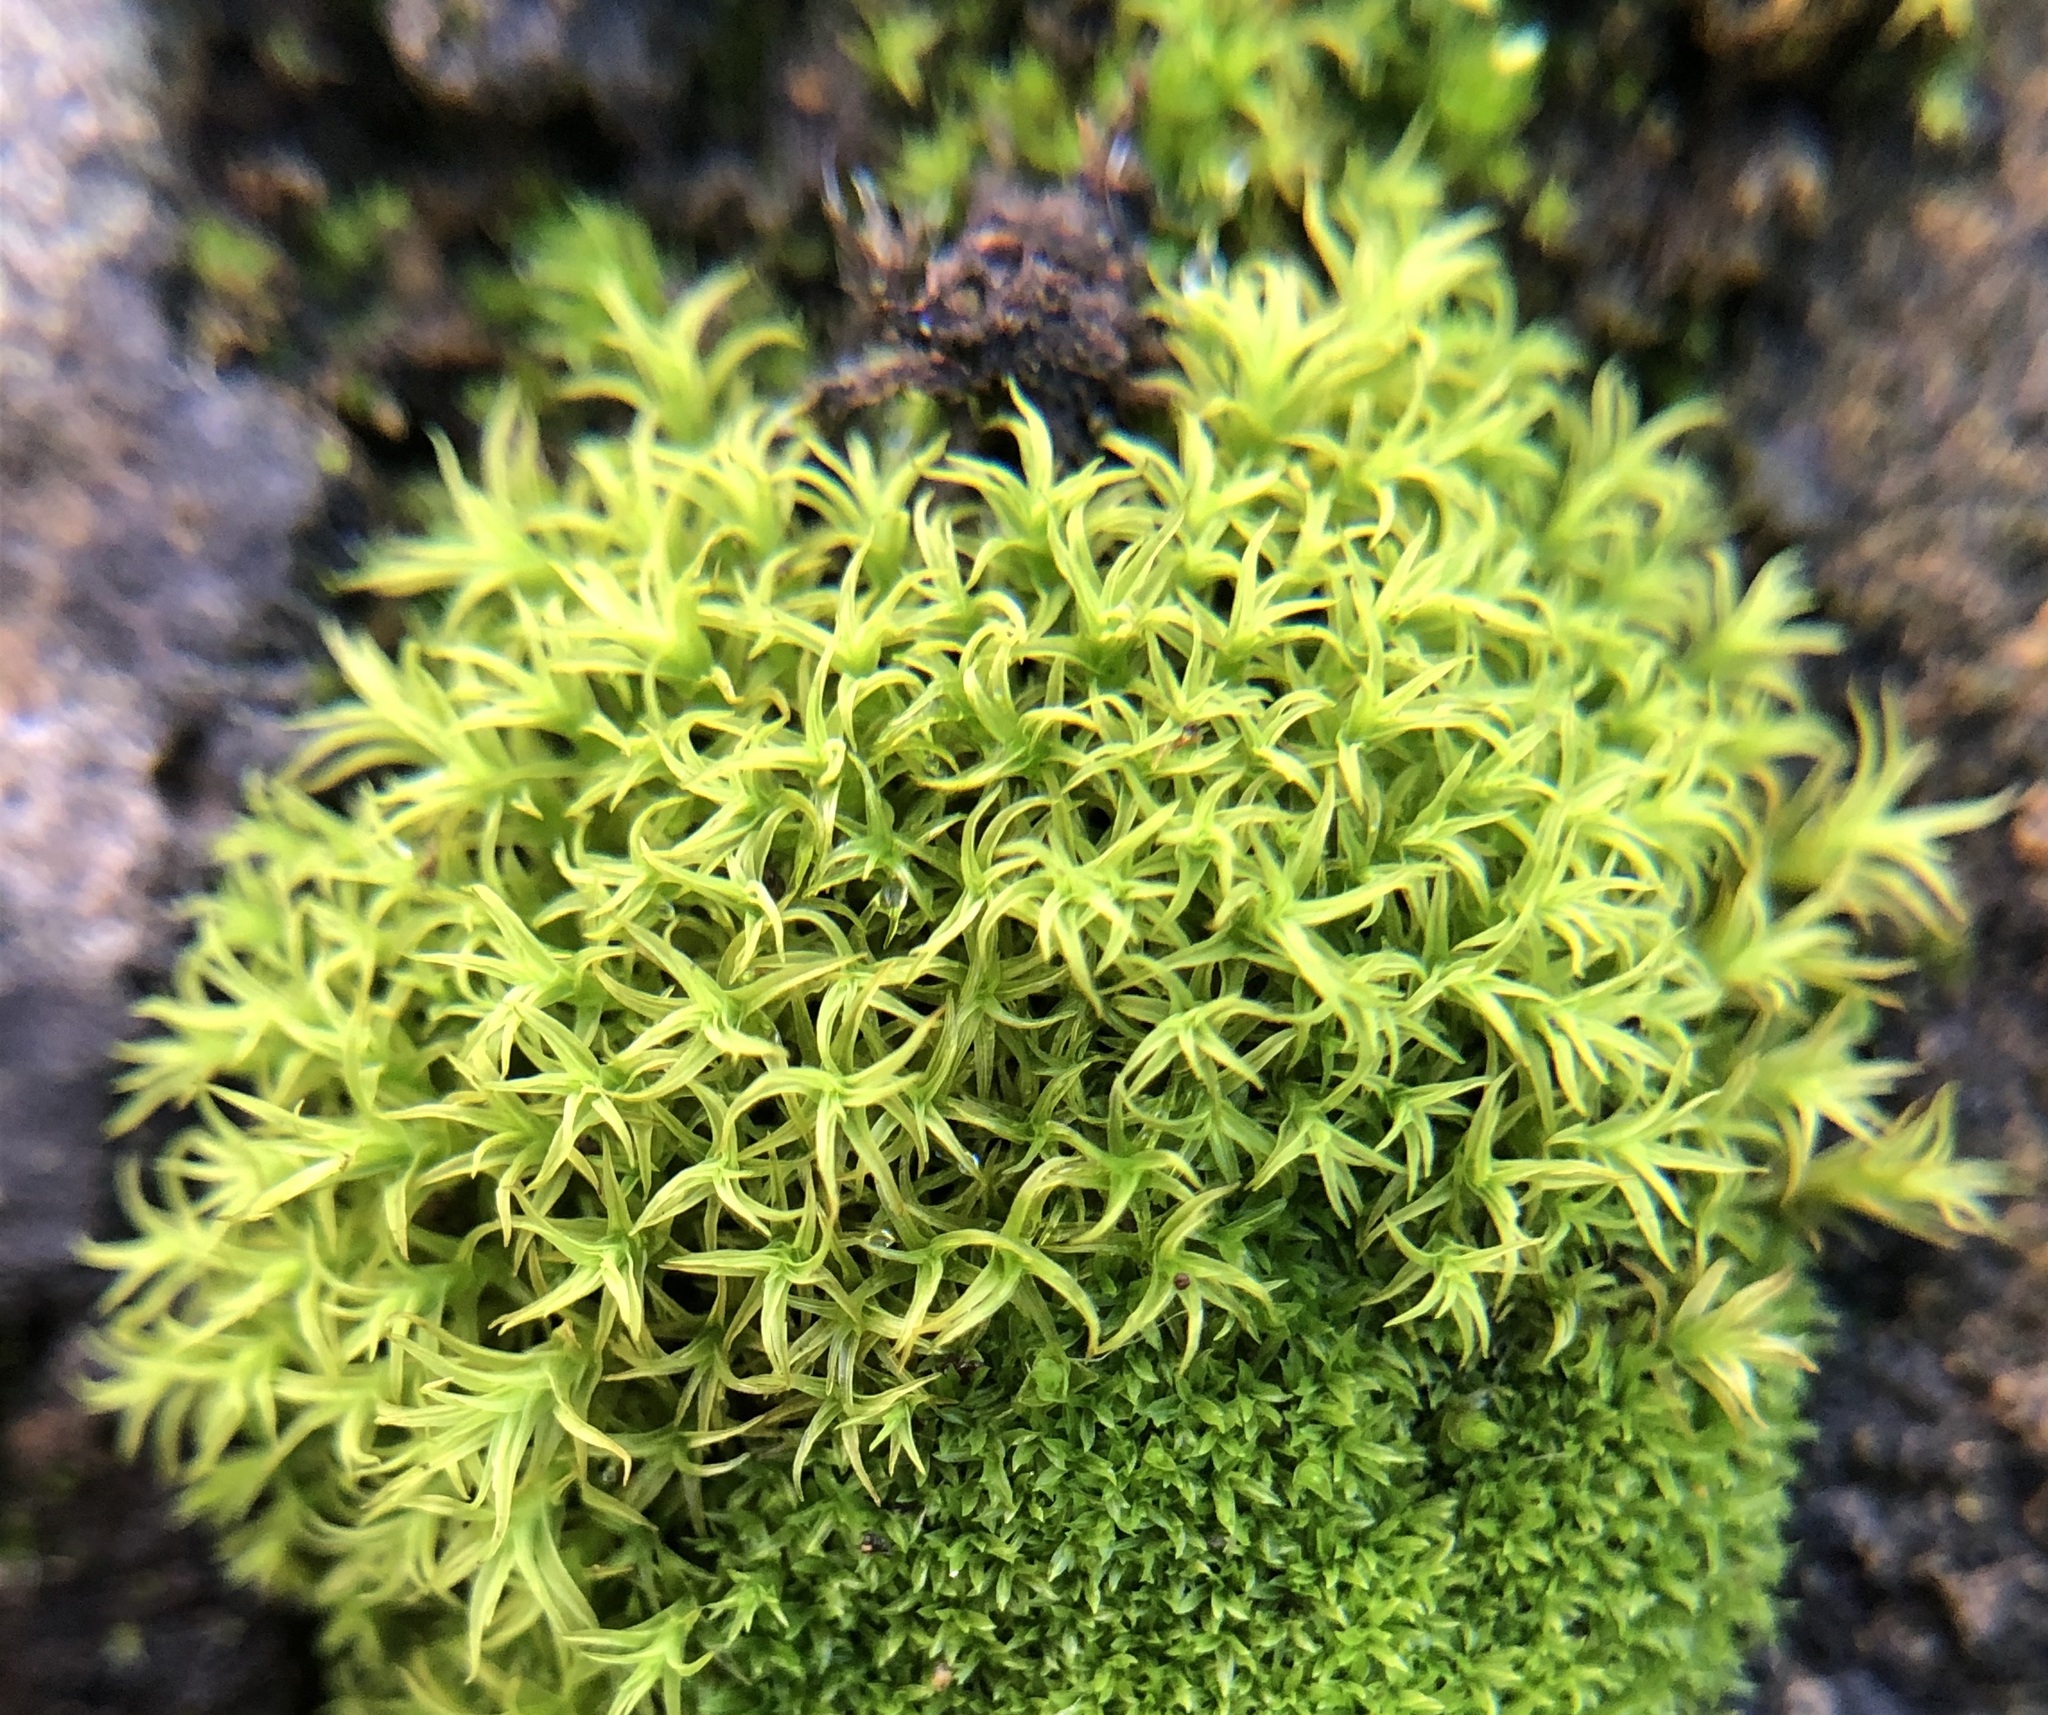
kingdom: Plantae
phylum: Bryophyta
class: Bryopsida
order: Pottiales
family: Pottiaceae
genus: Vinealobryum
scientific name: Vinealobryum insulanum
